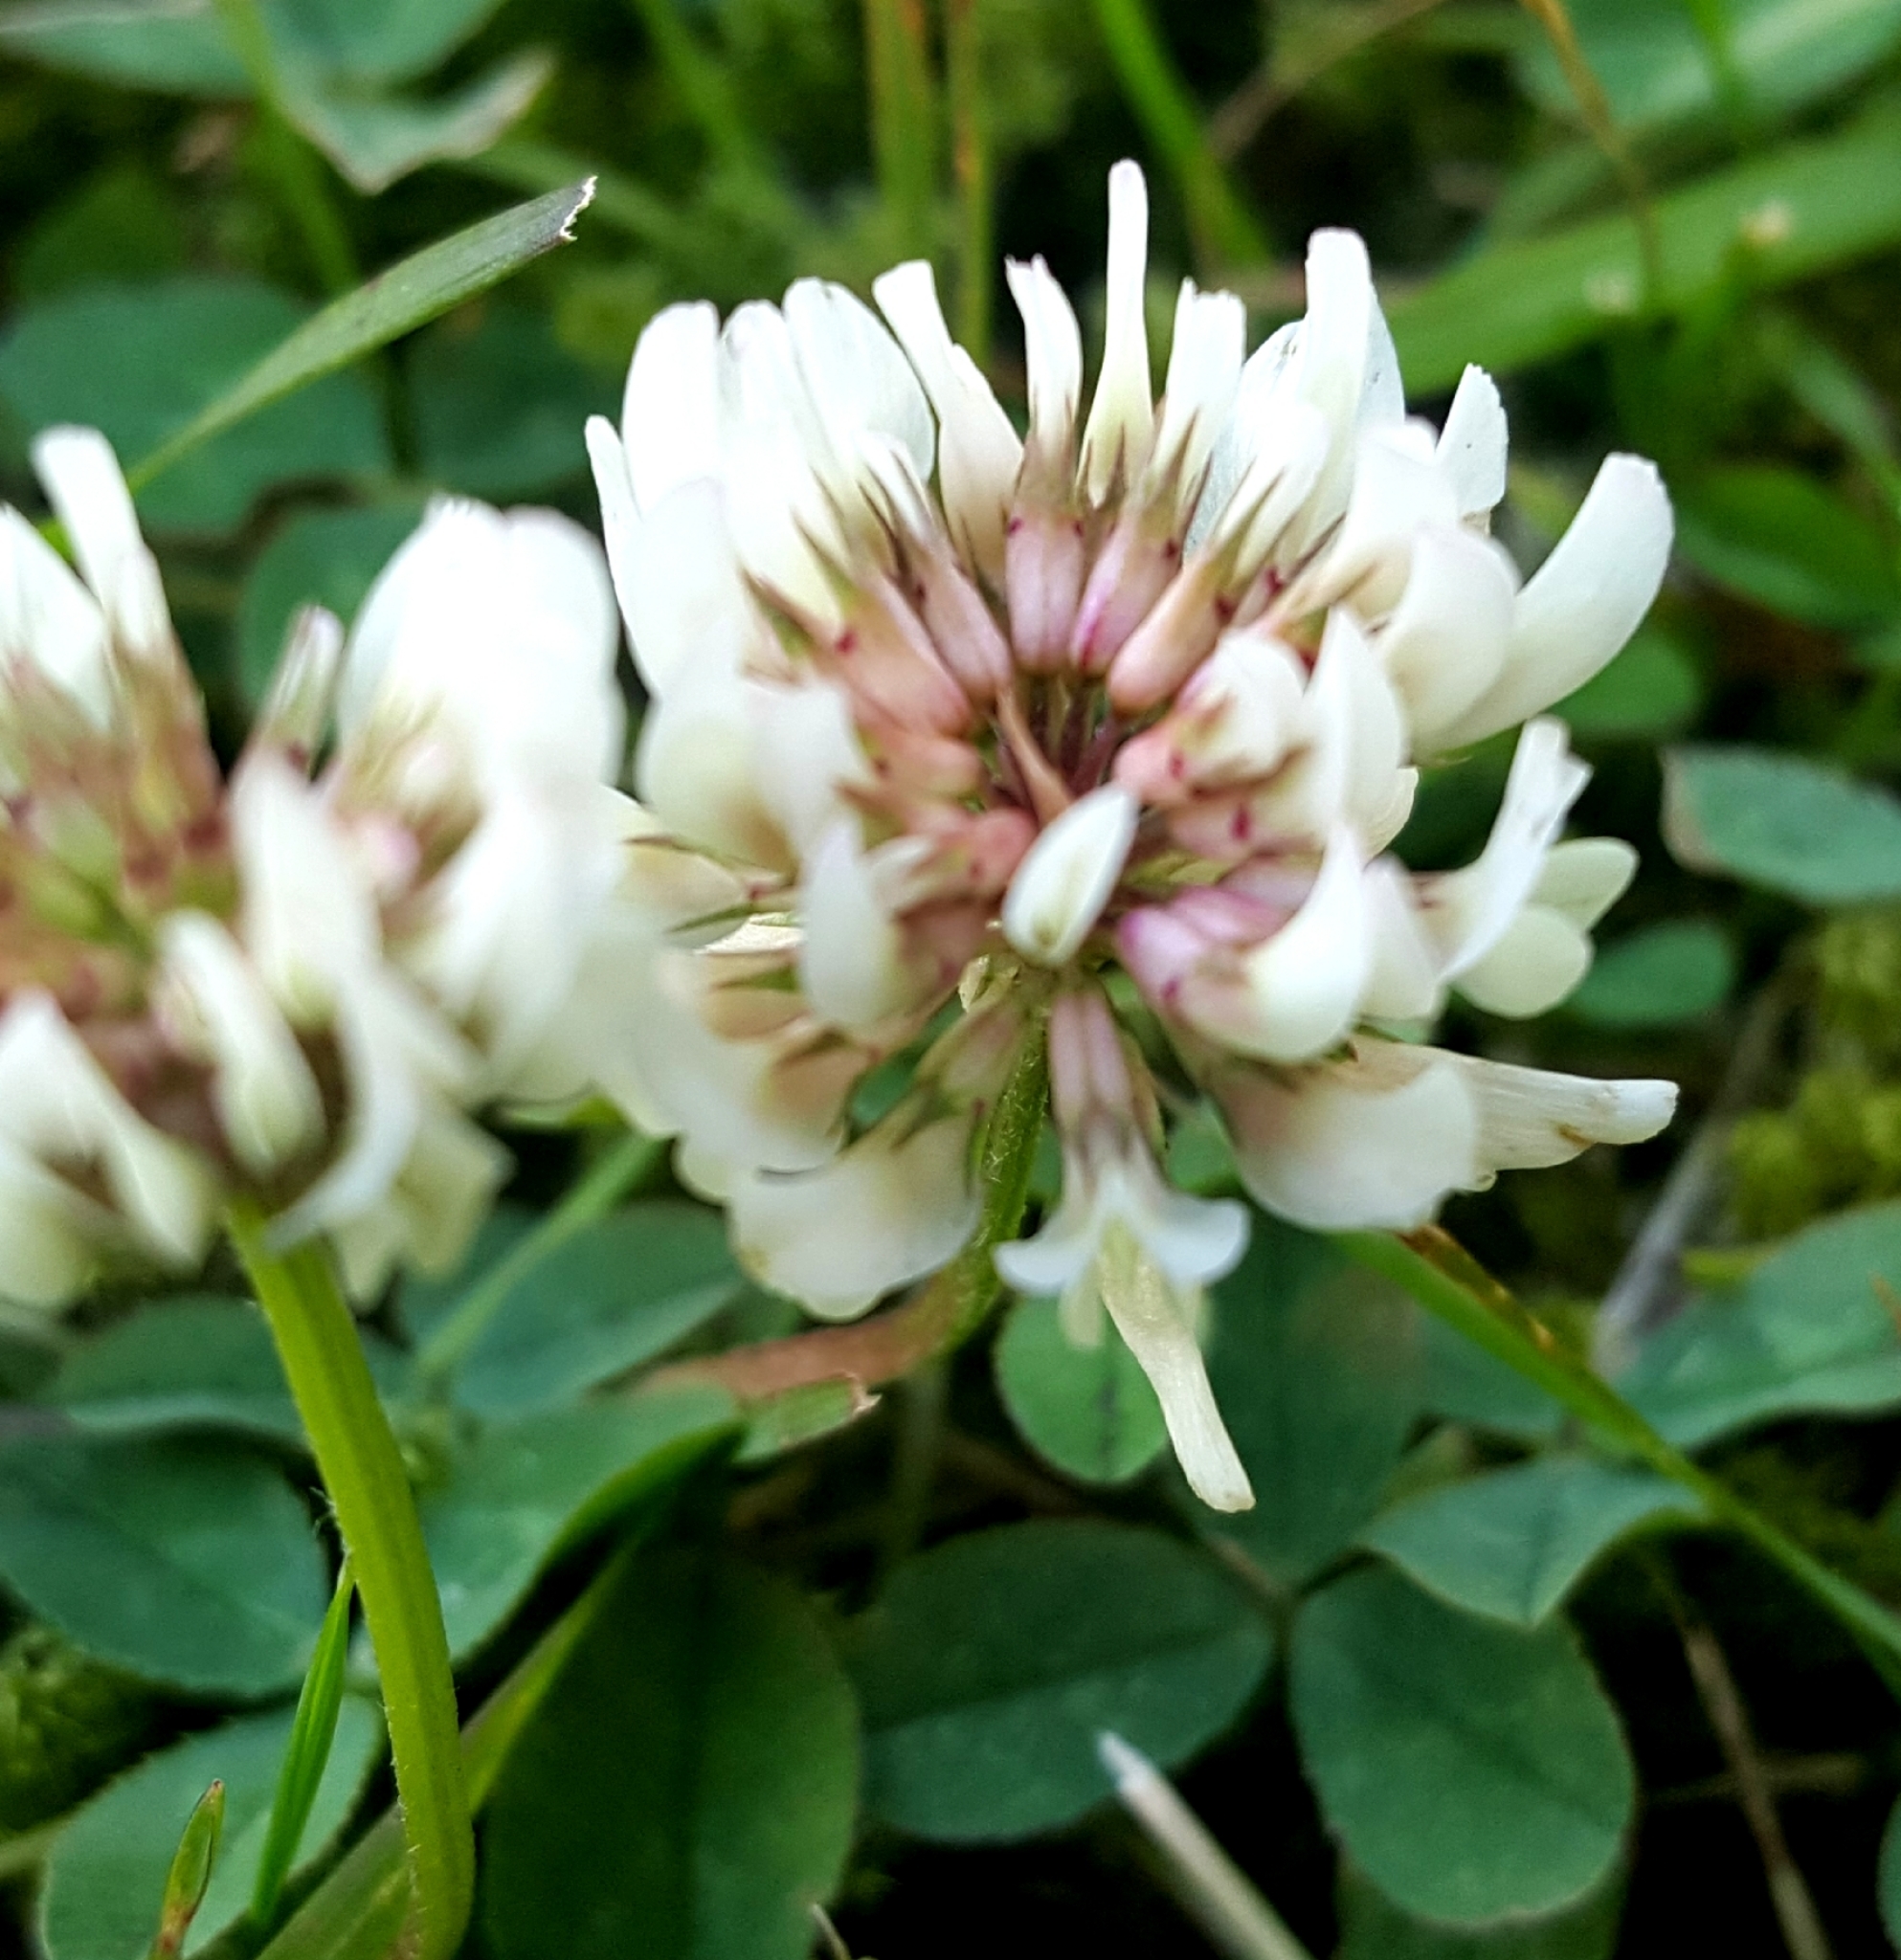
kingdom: Plantae
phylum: Tracheophyta
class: Magnoliopsida
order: Fabales
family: Fabaceae
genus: Trifolium
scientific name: Trifolium repens
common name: White clover
